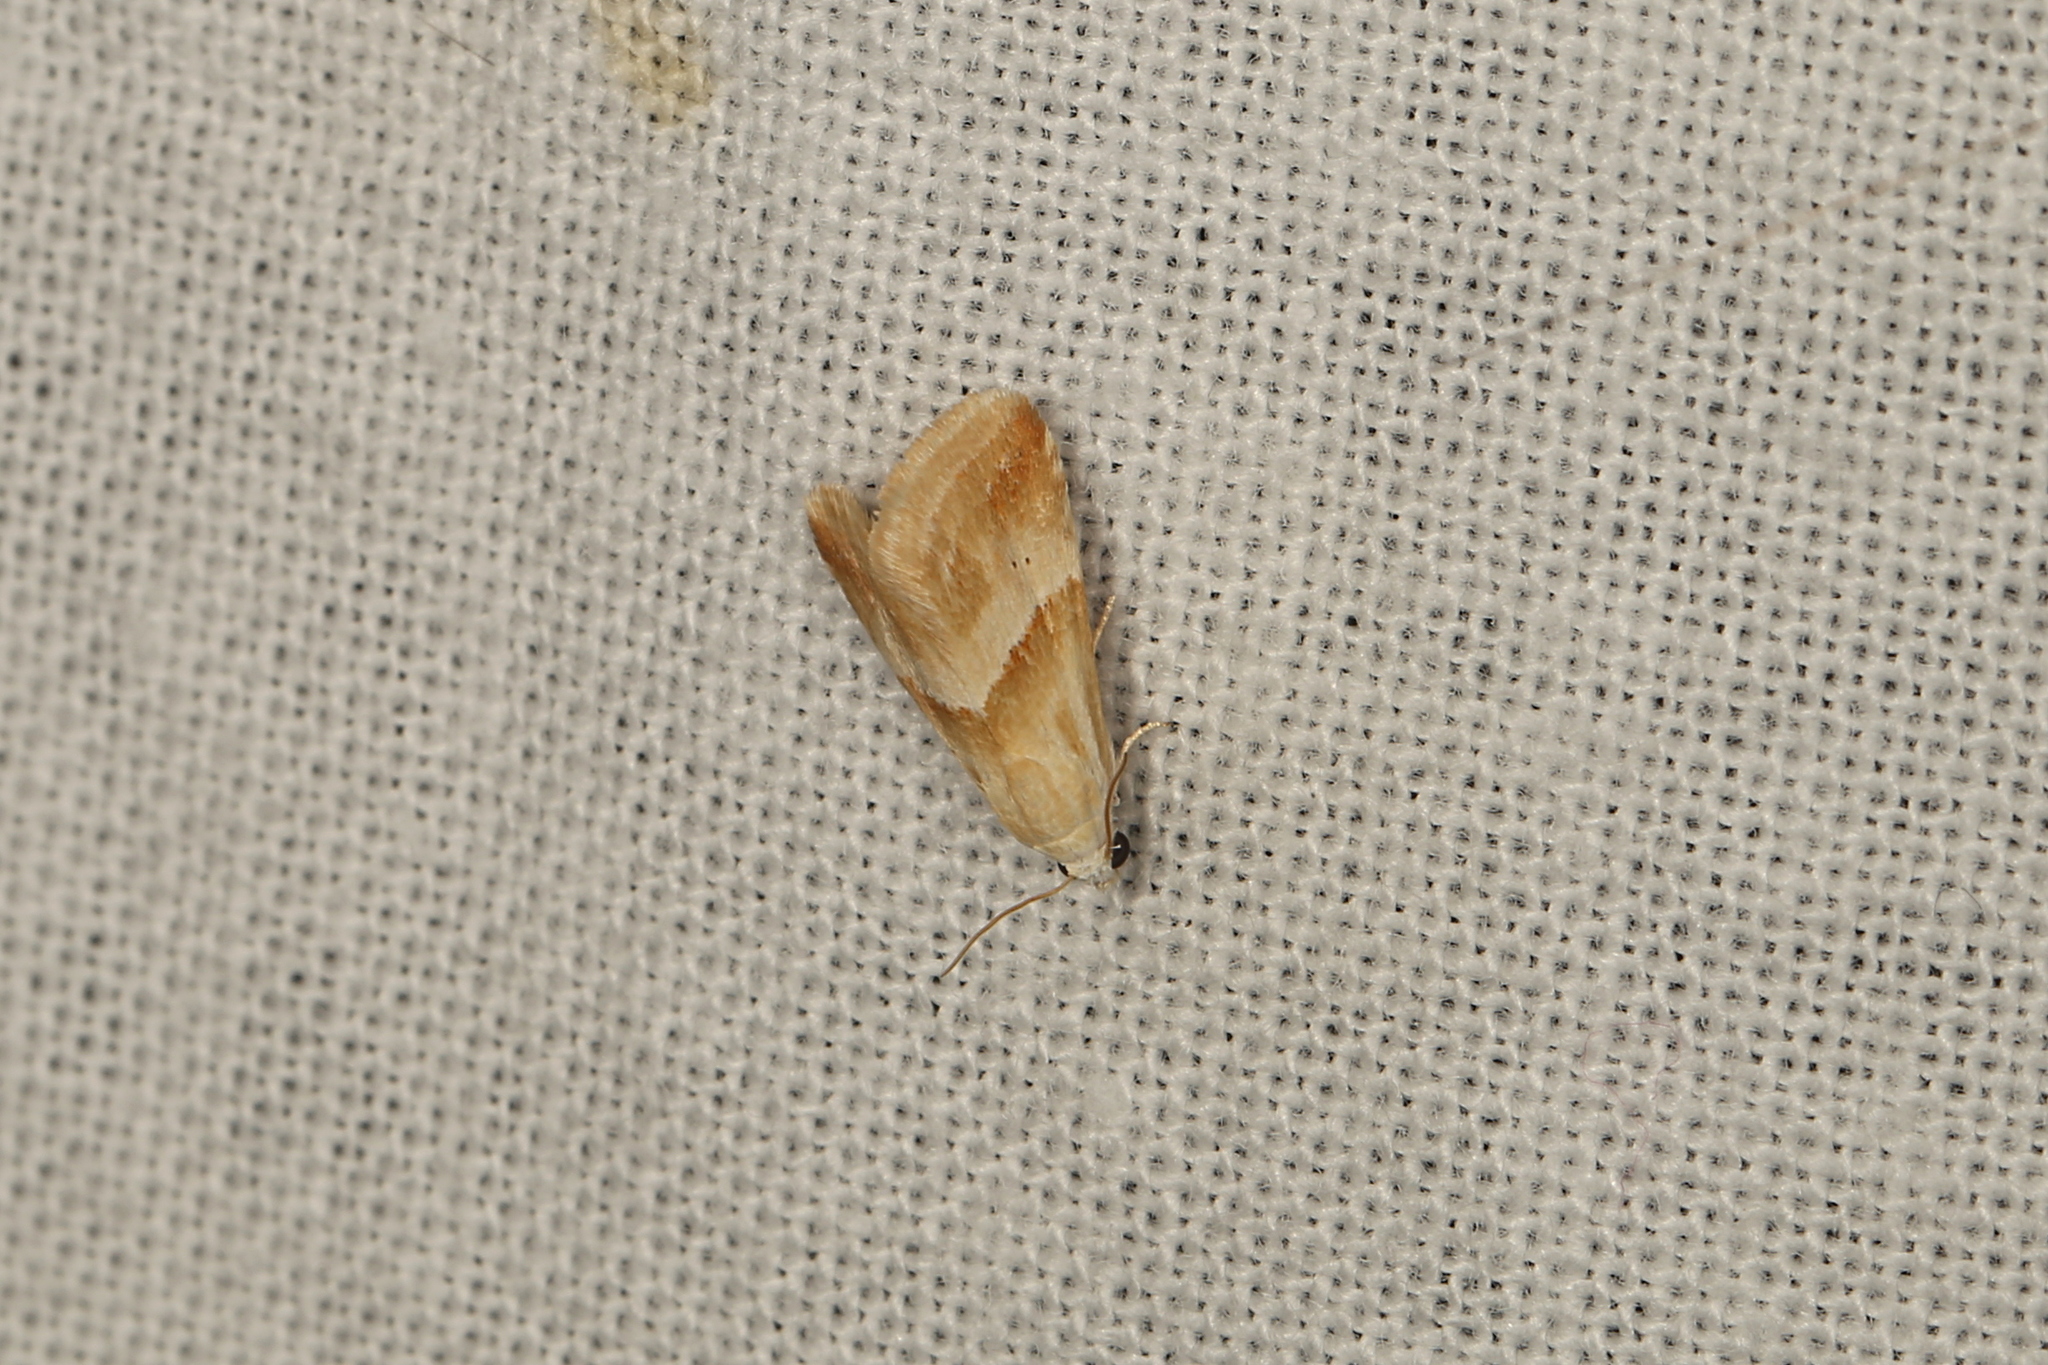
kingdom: Animalia
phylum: Arthropoda
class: Insecta
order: Lepidoptera
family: Noctuidae
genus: Eublemma
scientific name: Eublemma inconspicua
